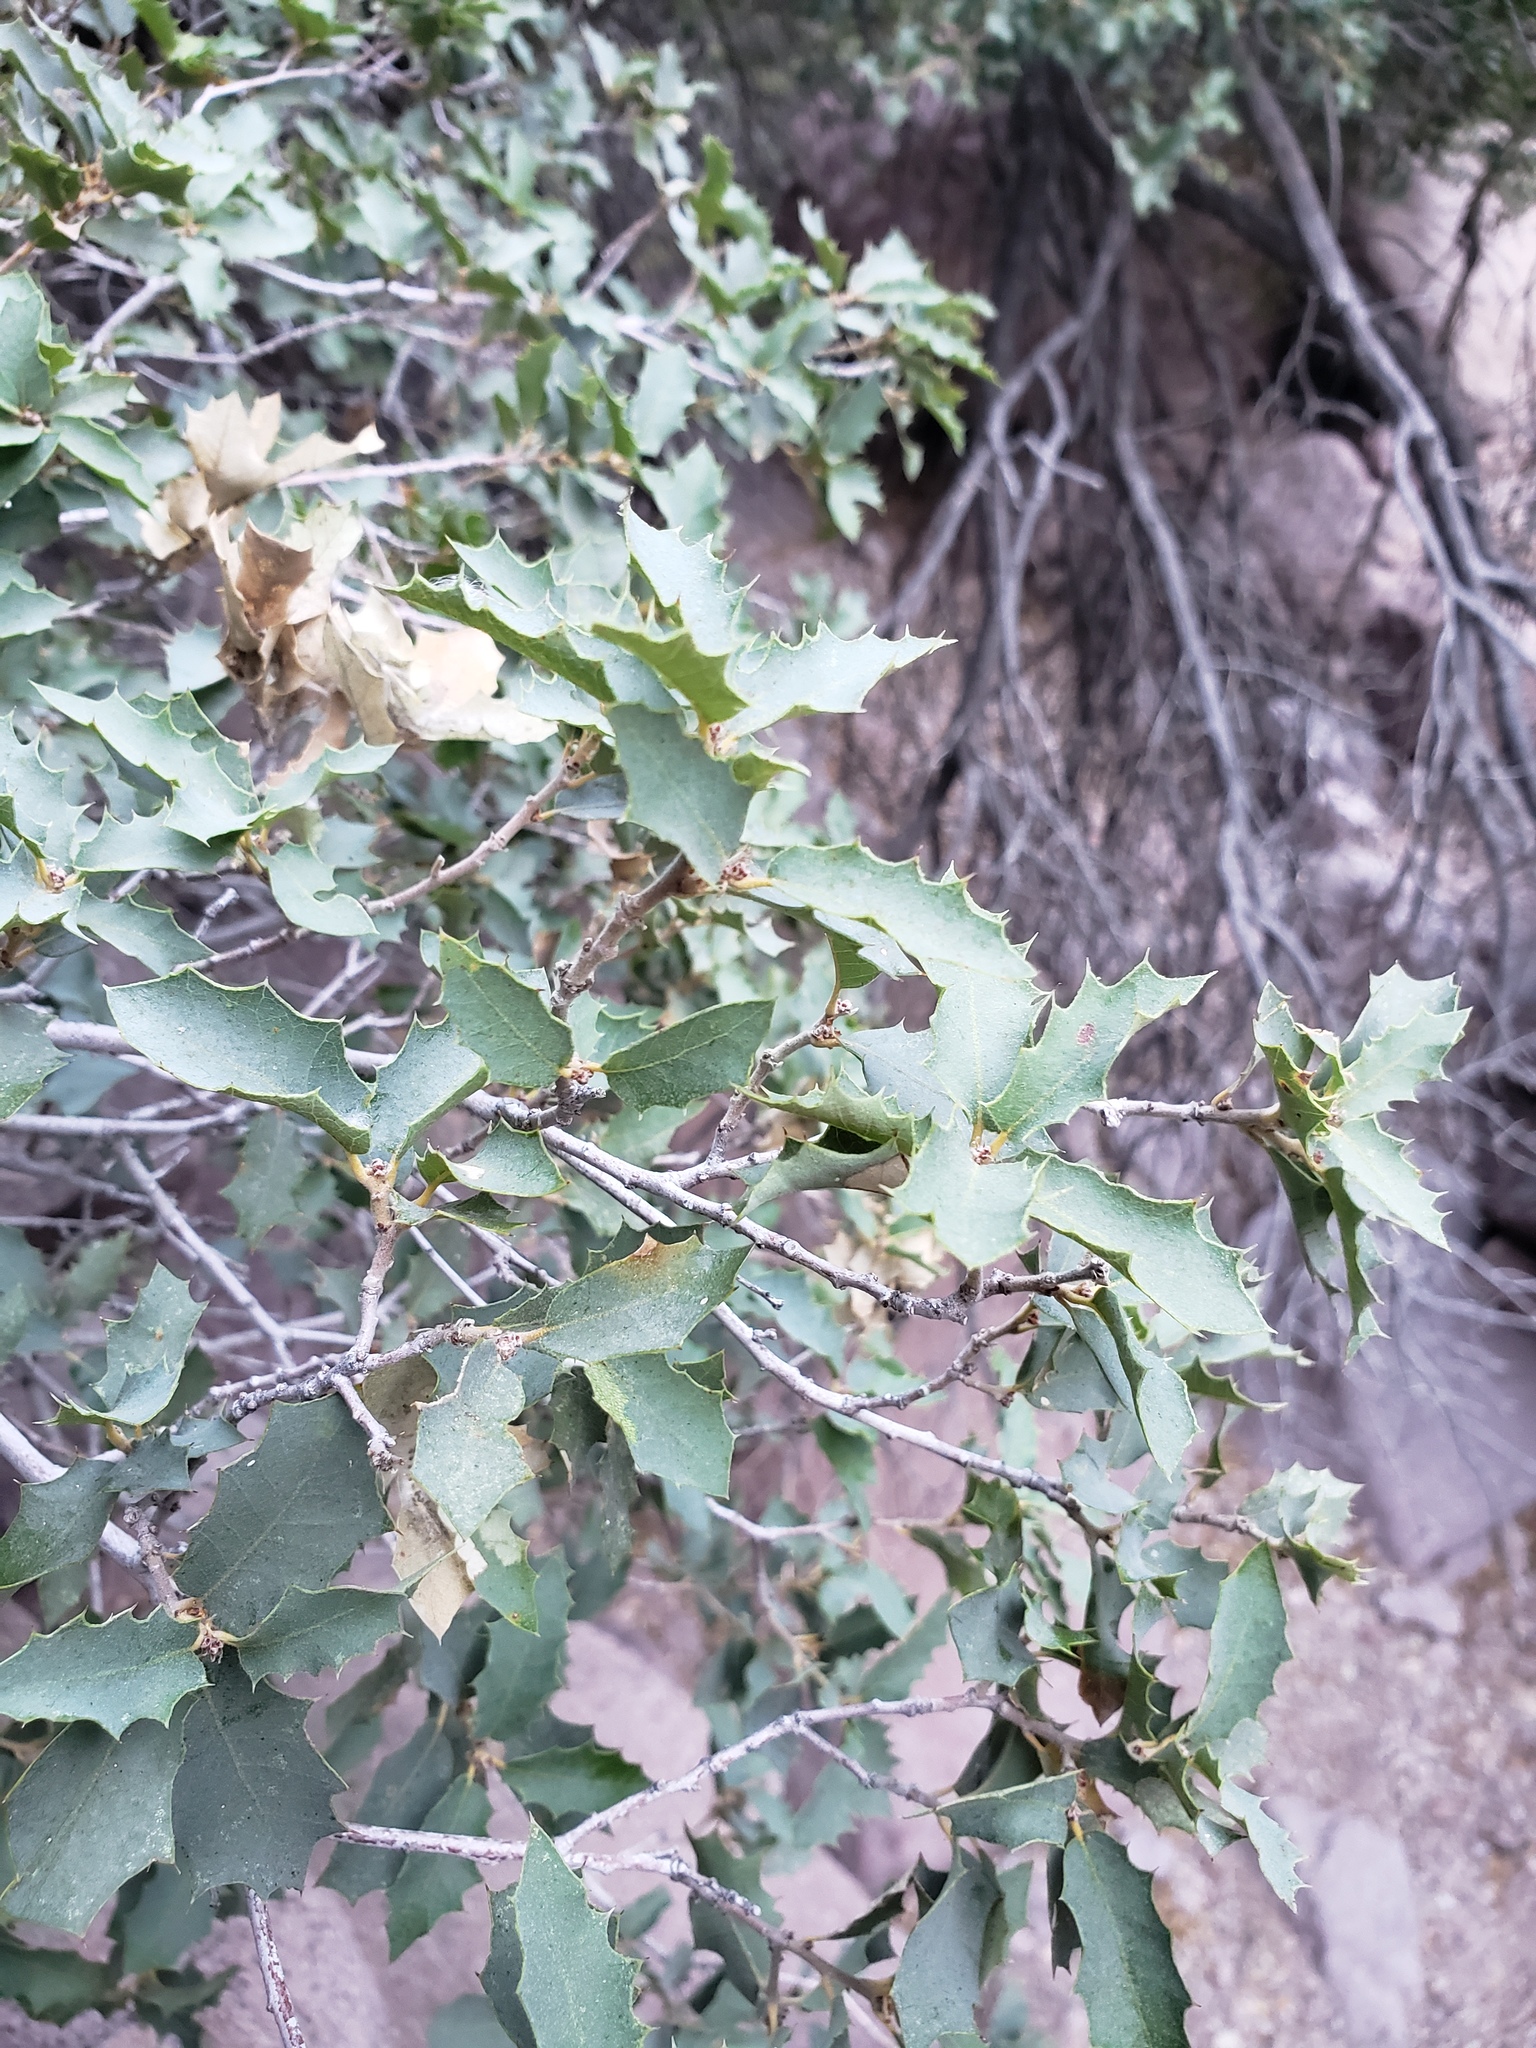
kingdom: Plantae
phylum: Tracheophyta
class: Magnoliopsida
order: Fagales
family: Fagaceae
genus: Quercus
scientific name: Quercus turbinella
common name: Sonoran scrub oak
